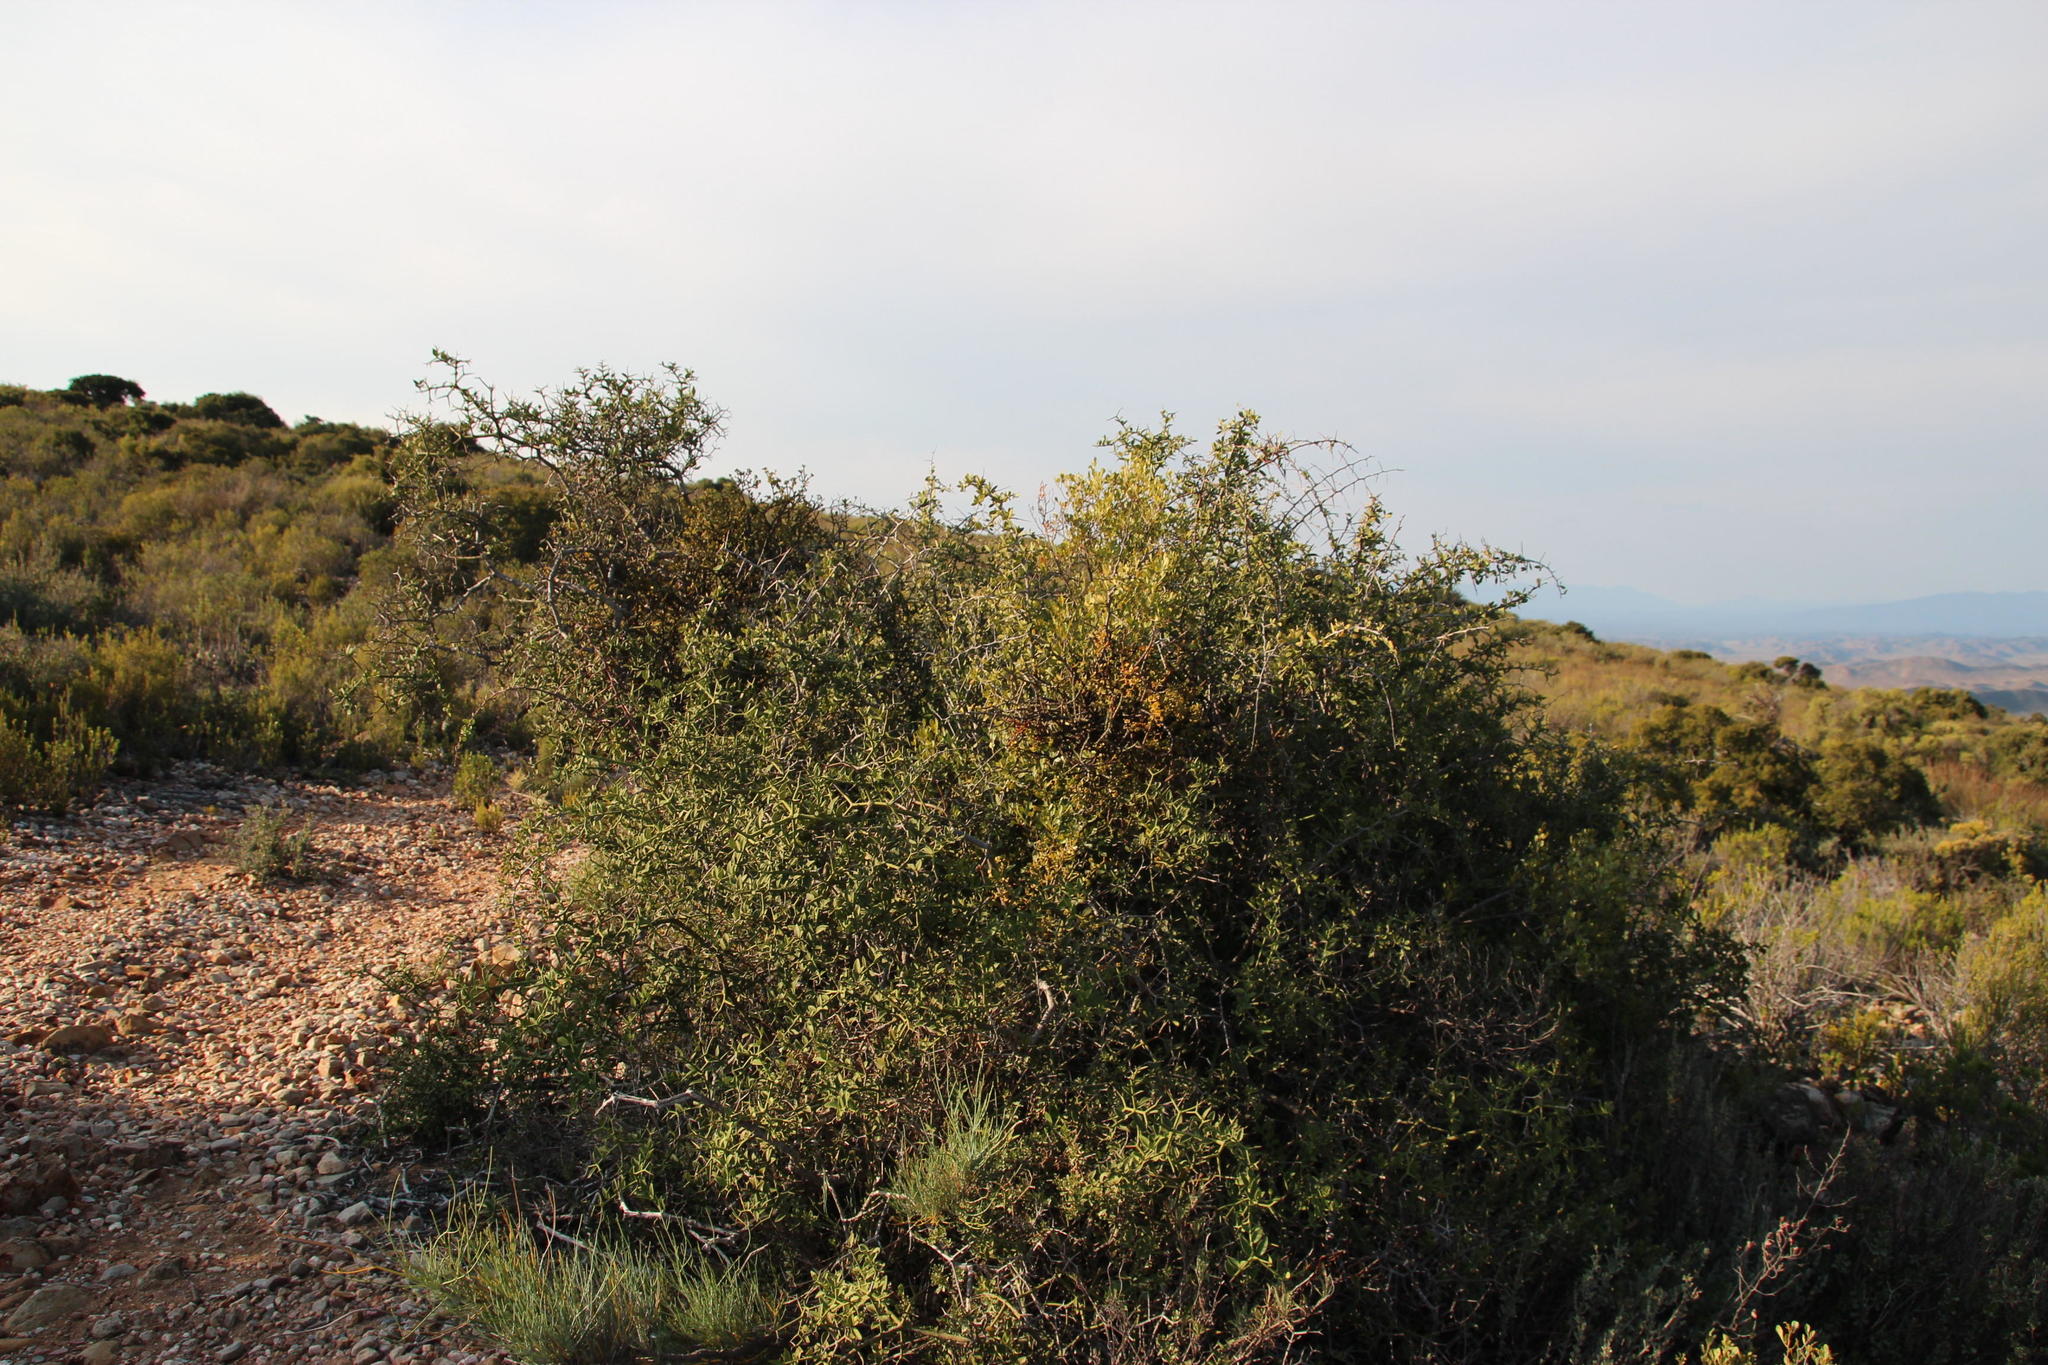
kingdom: Plantae
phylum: Tracheophyta
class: Magnoliopsida
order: Celastrales
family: Celastraceae
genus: Gloveria
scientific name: Gloveria integrifolia
